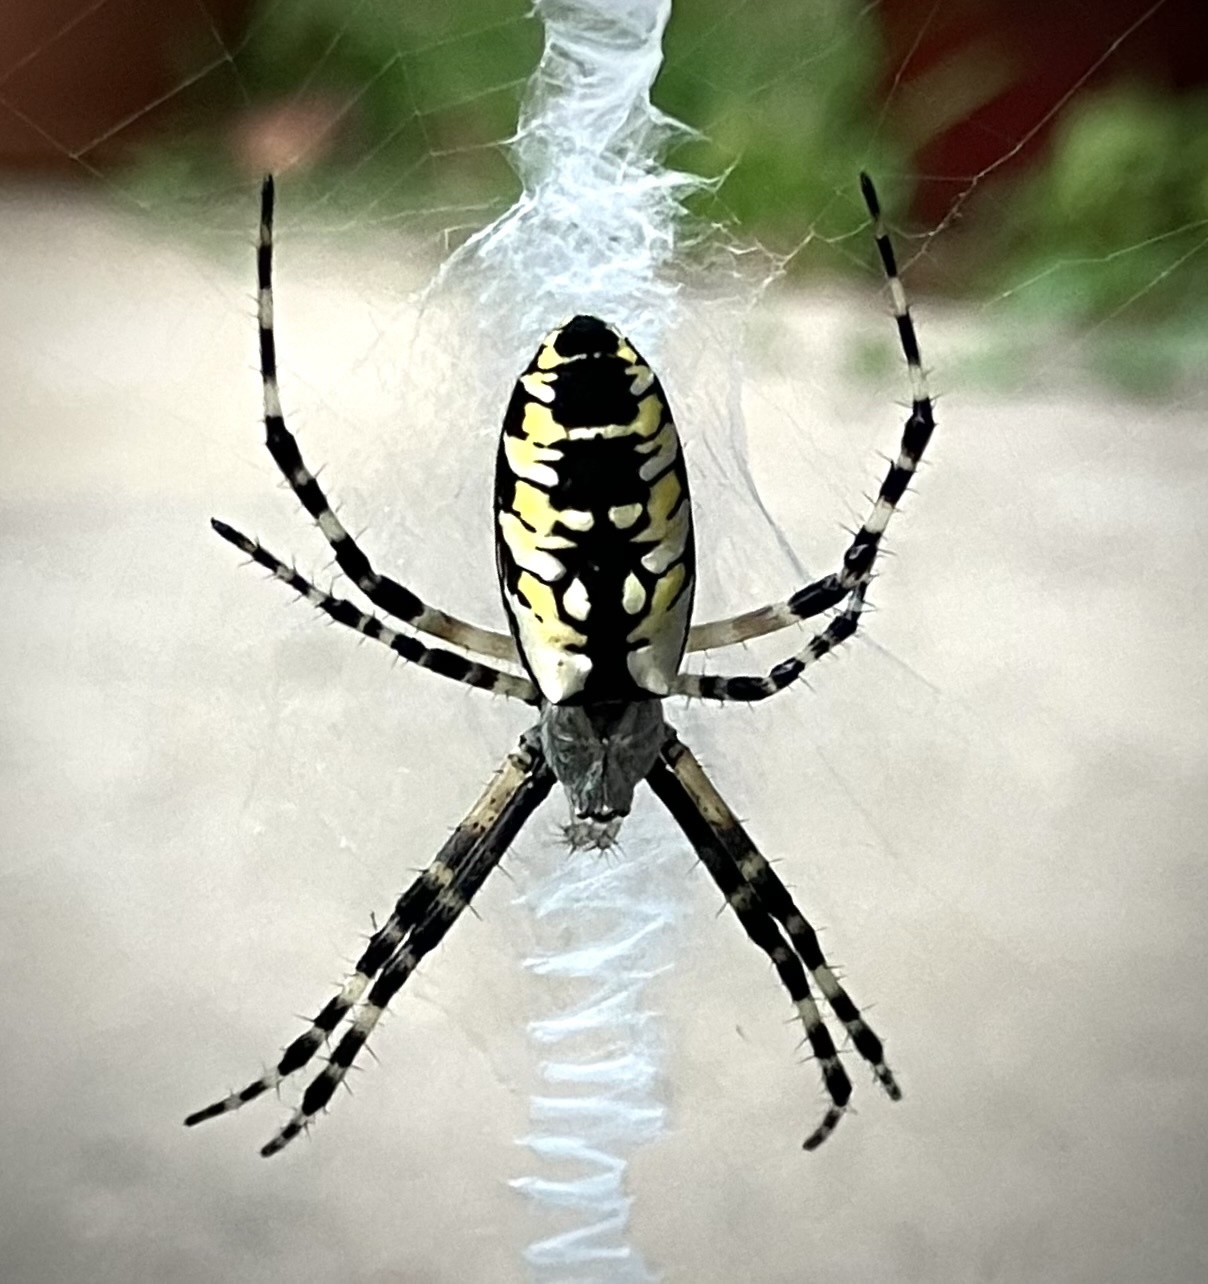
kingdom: Animalia
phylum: Arthropoda
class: Arachnida
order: Araneae
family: Araneidae
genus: Argiope
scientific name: Argiope aurantia
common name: Orb weavers
